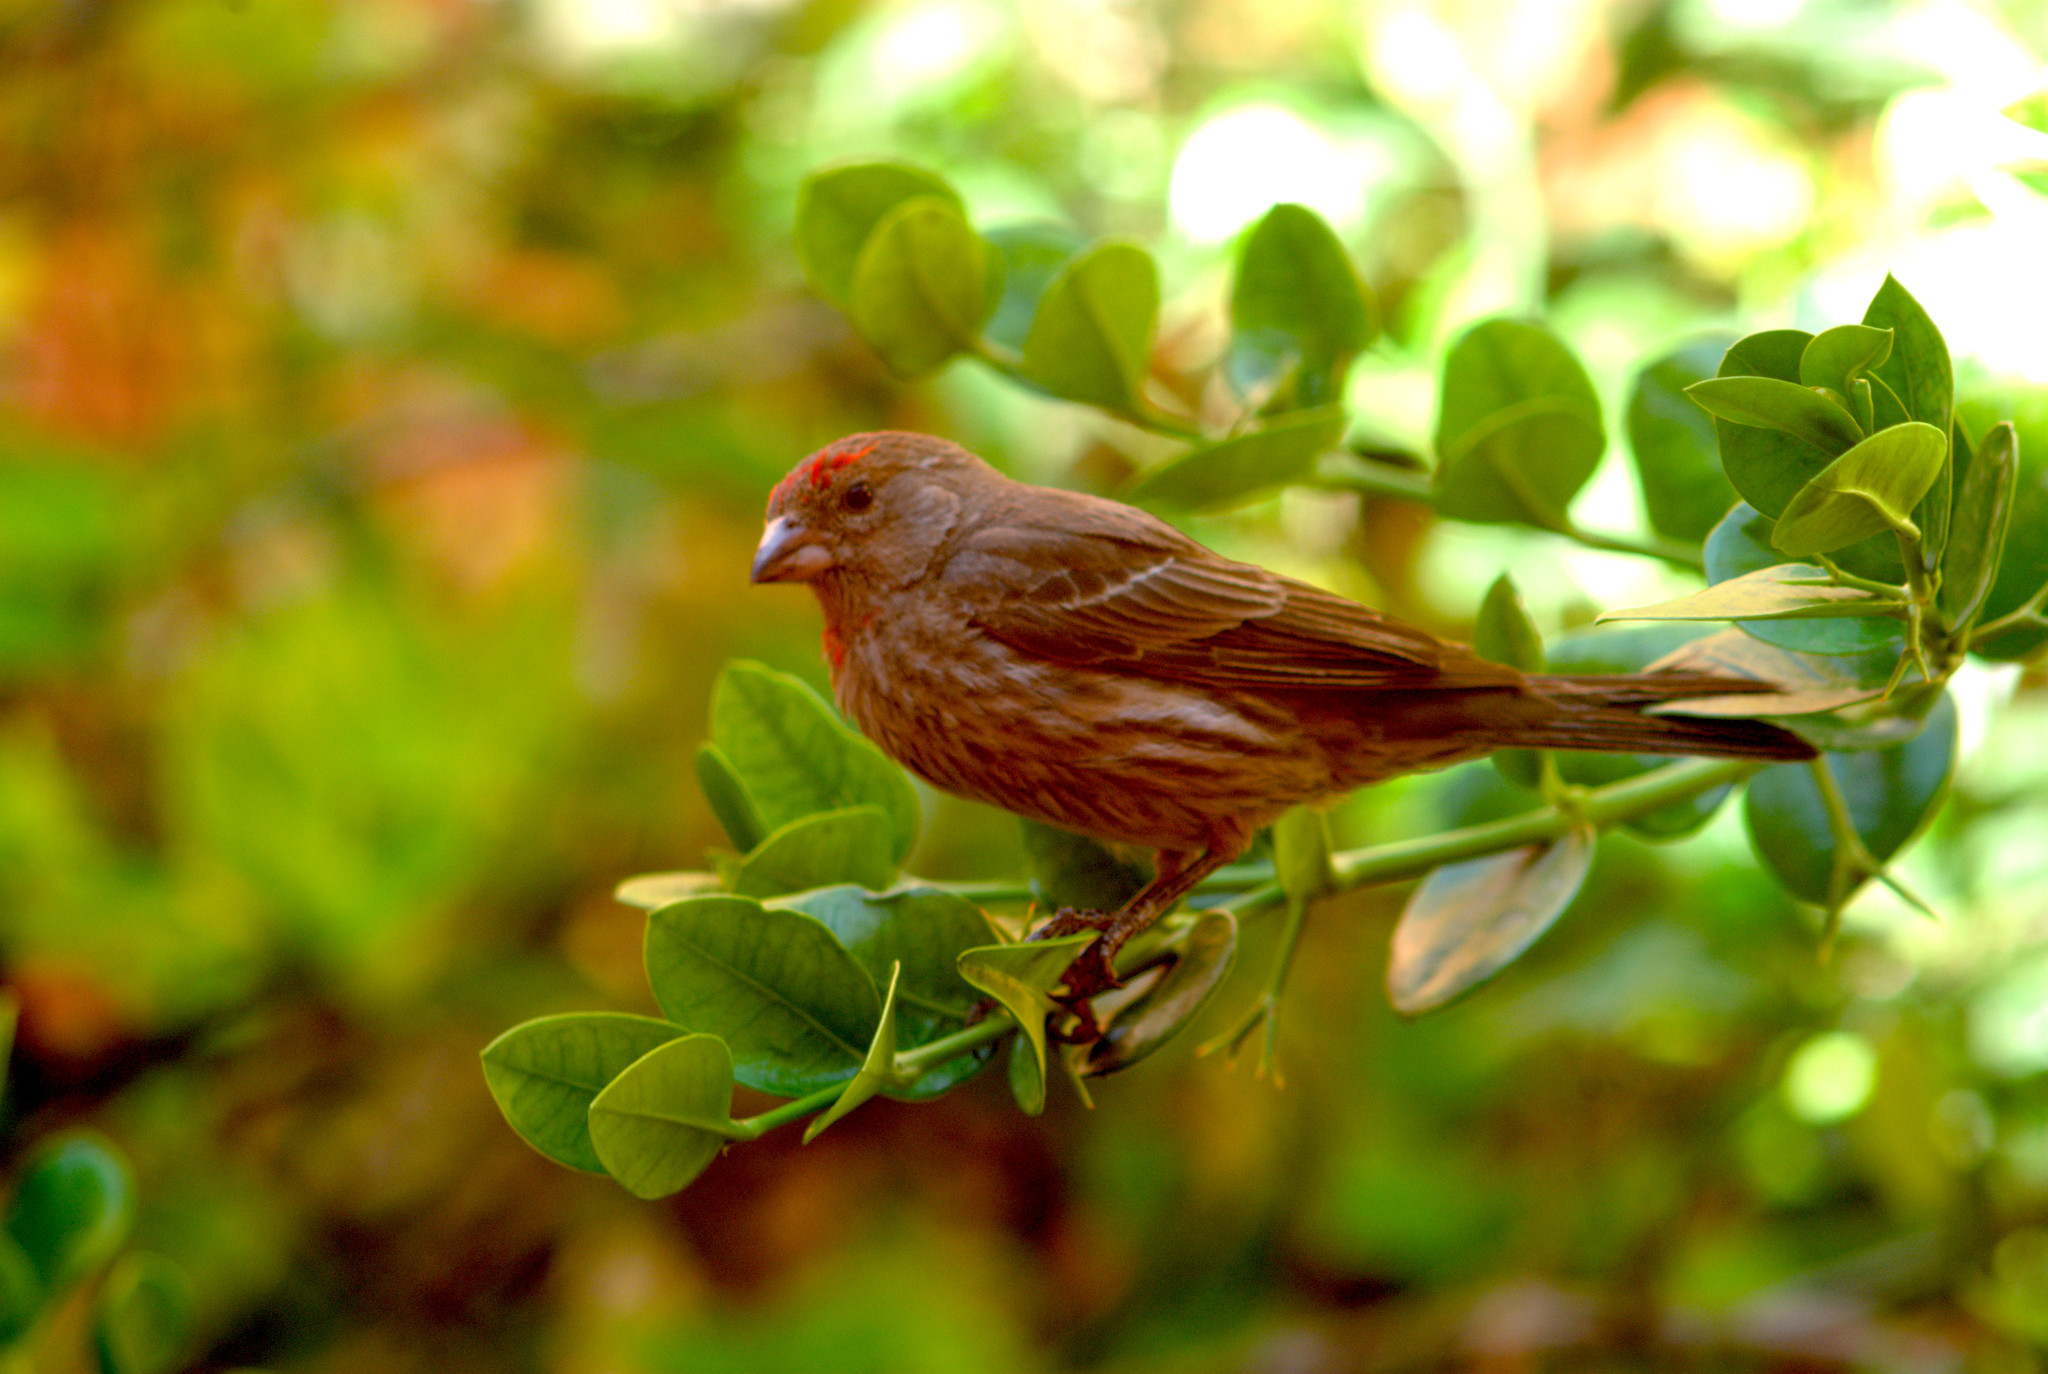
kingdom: Animalia
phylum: Chordata
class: Aves
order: Passeriformes
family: Fringillidae
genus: Haemorhous
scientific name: Haemorhous mexicanus
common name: House finch
